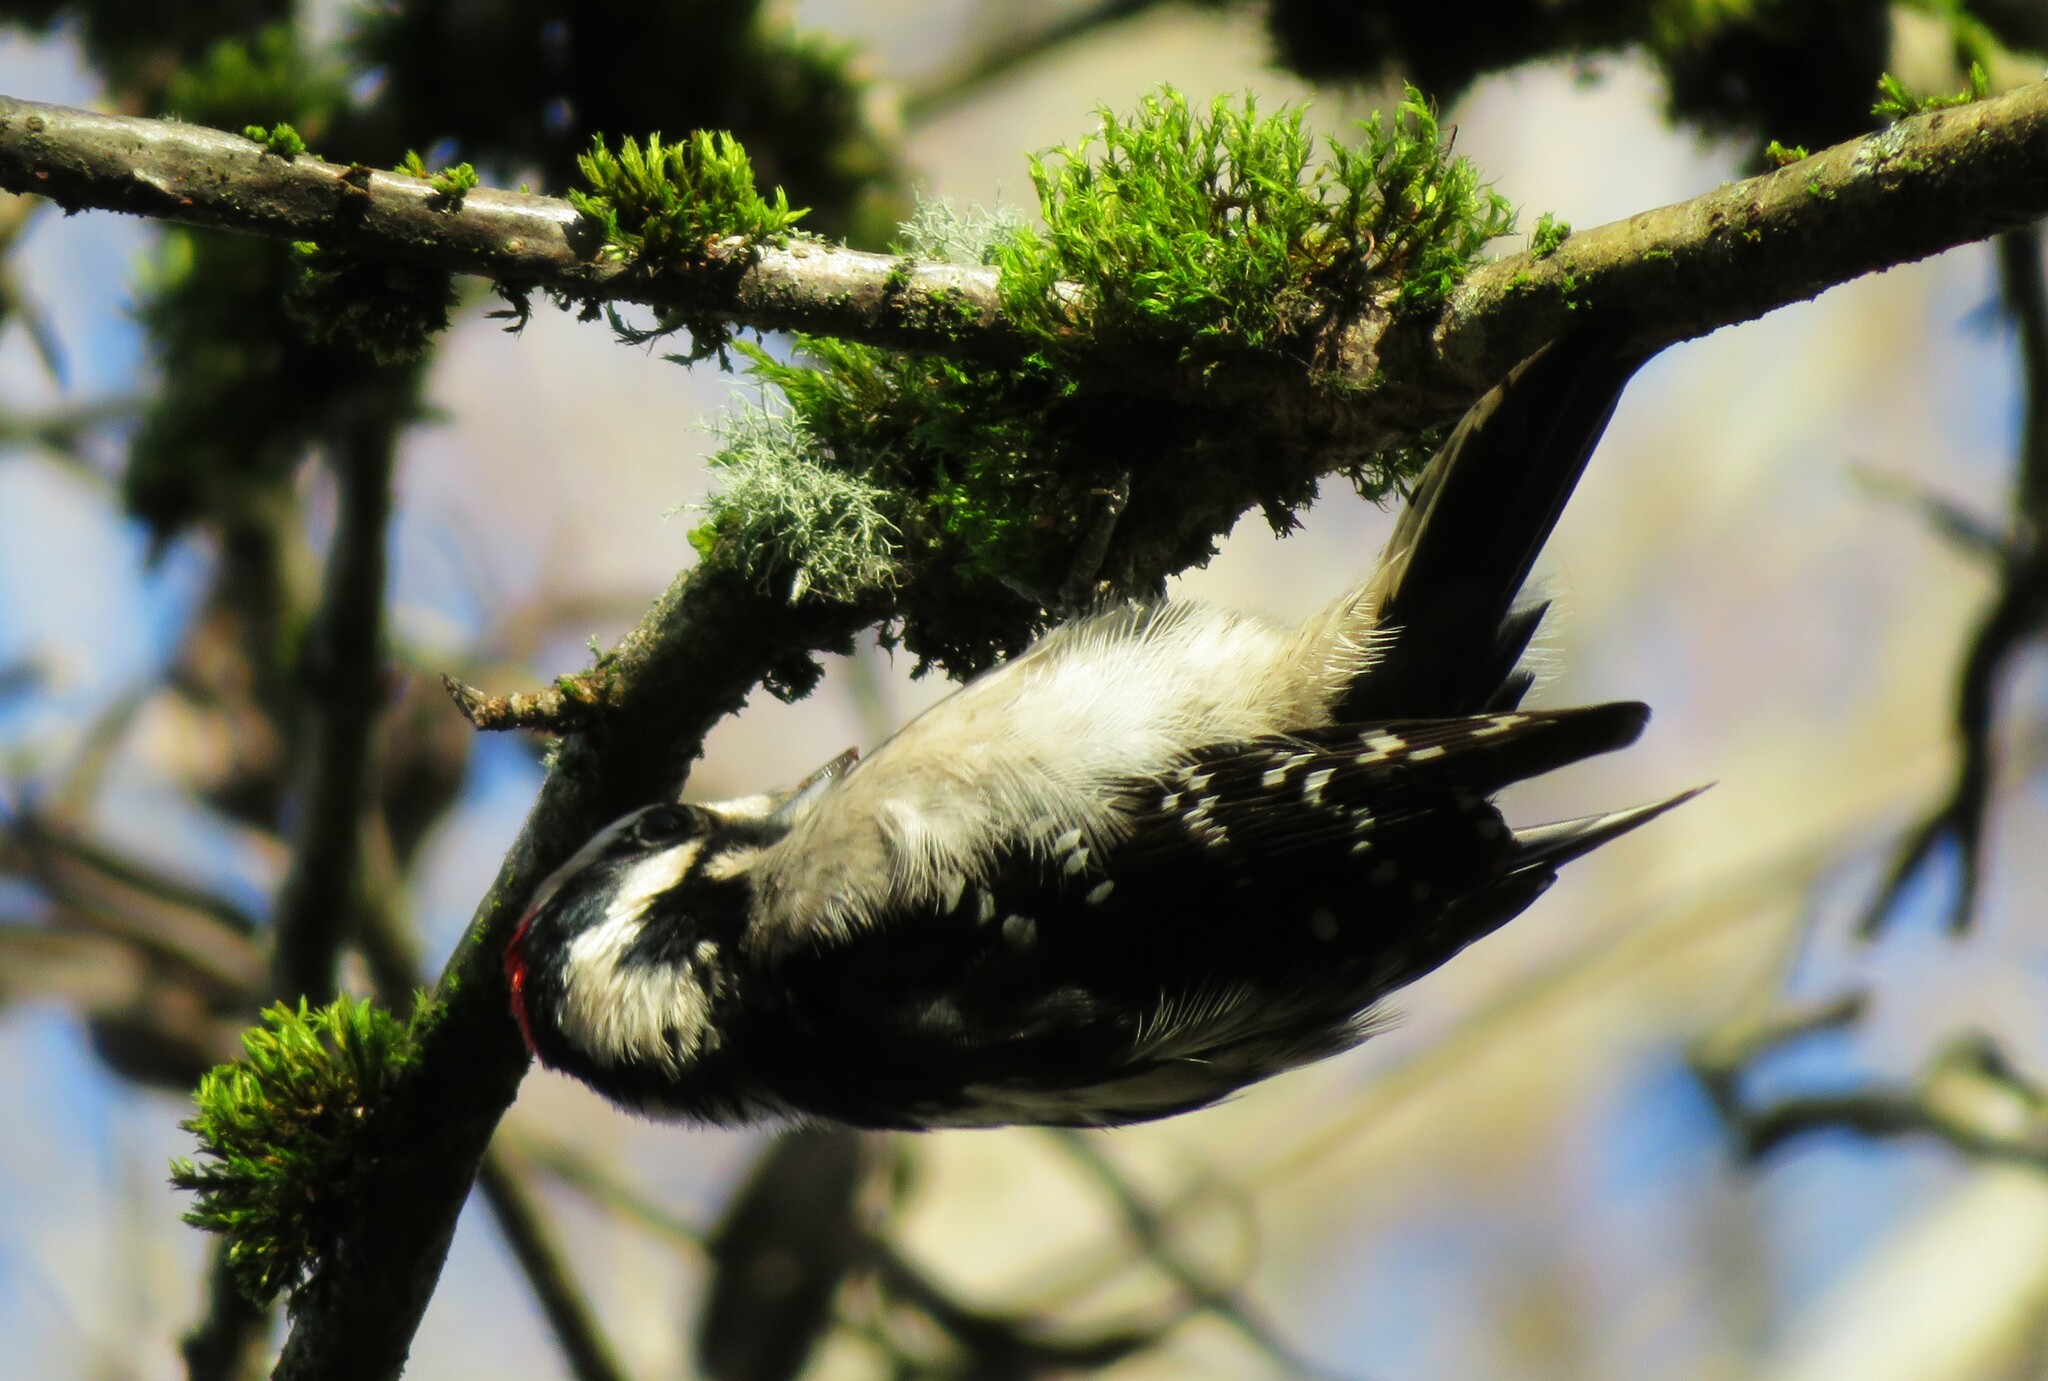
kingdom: Animalia
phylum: Chordata
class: Aves
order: Piciformes
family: Picidae
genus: Dryobates
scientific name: Dryobates pubescens
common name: Downy woodpecker
